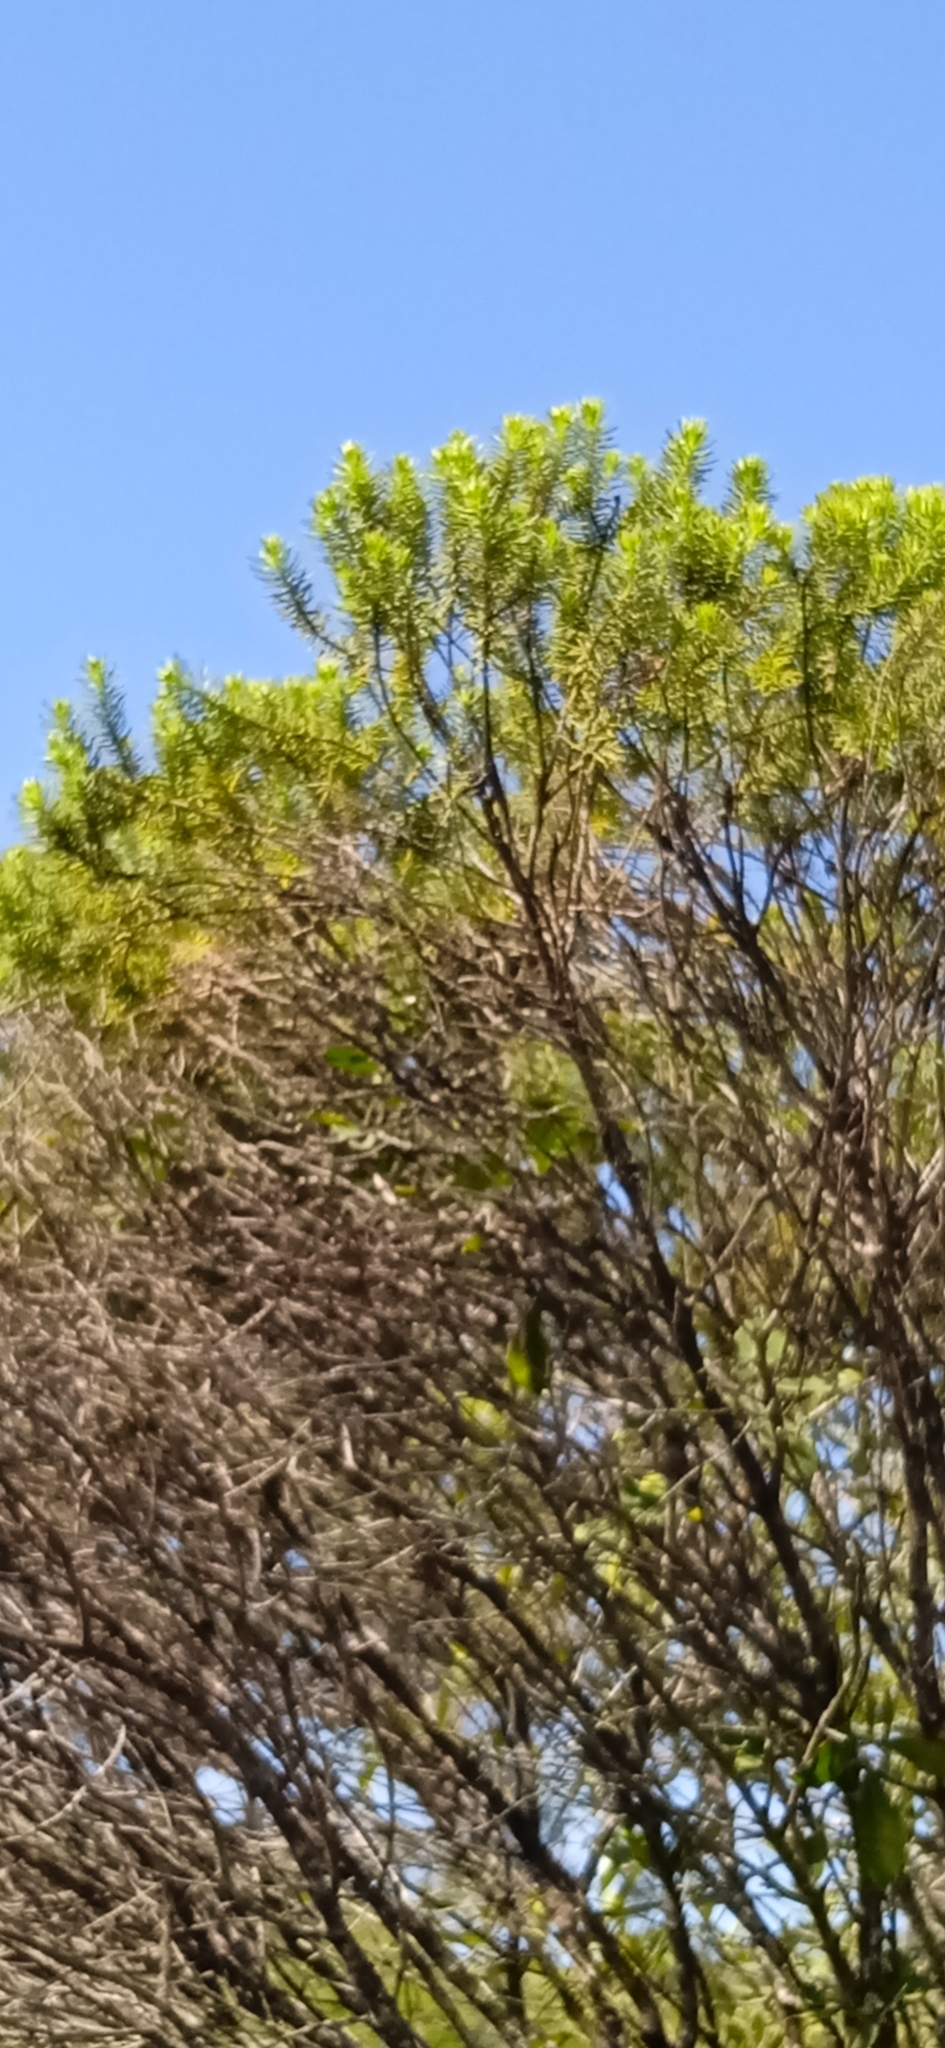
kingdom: Plantae
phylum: Tracheophyta
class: Magnoliopsida
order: Asterales
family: Asteraceae
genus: Baccharis
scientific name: Baccharis aliena
